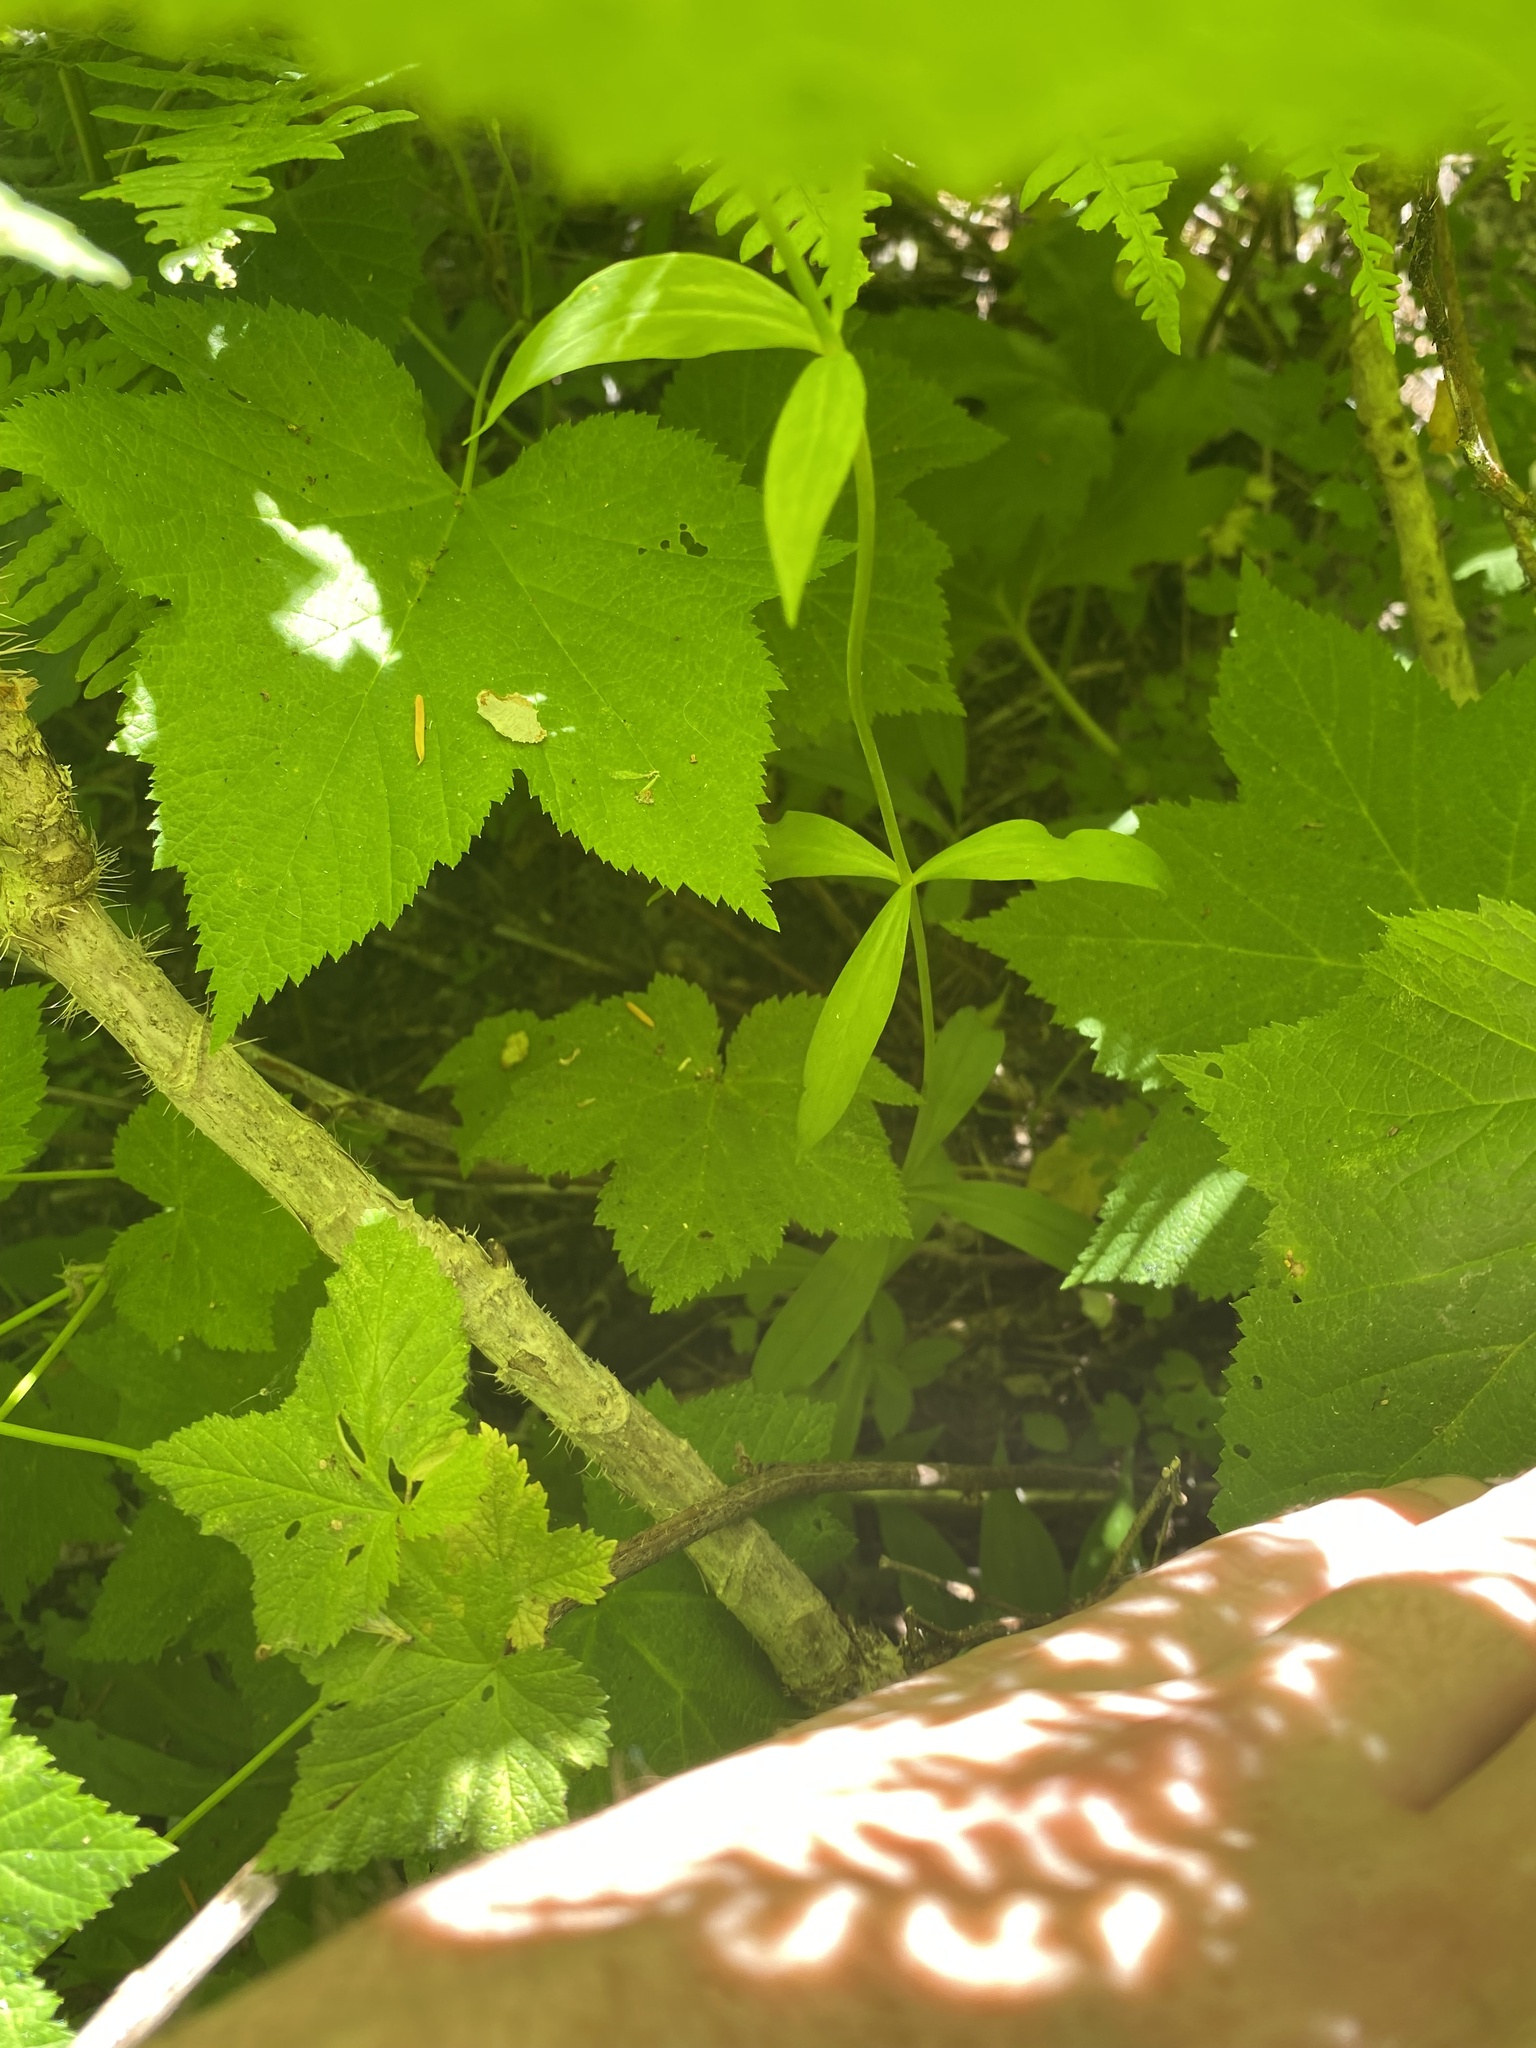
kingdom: Plantae
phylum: Tracheophyta
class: Liliopsida
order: Liliales
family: Liliaceae
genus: Lilium
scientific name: Lilium columbianum
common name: Columbia lily
